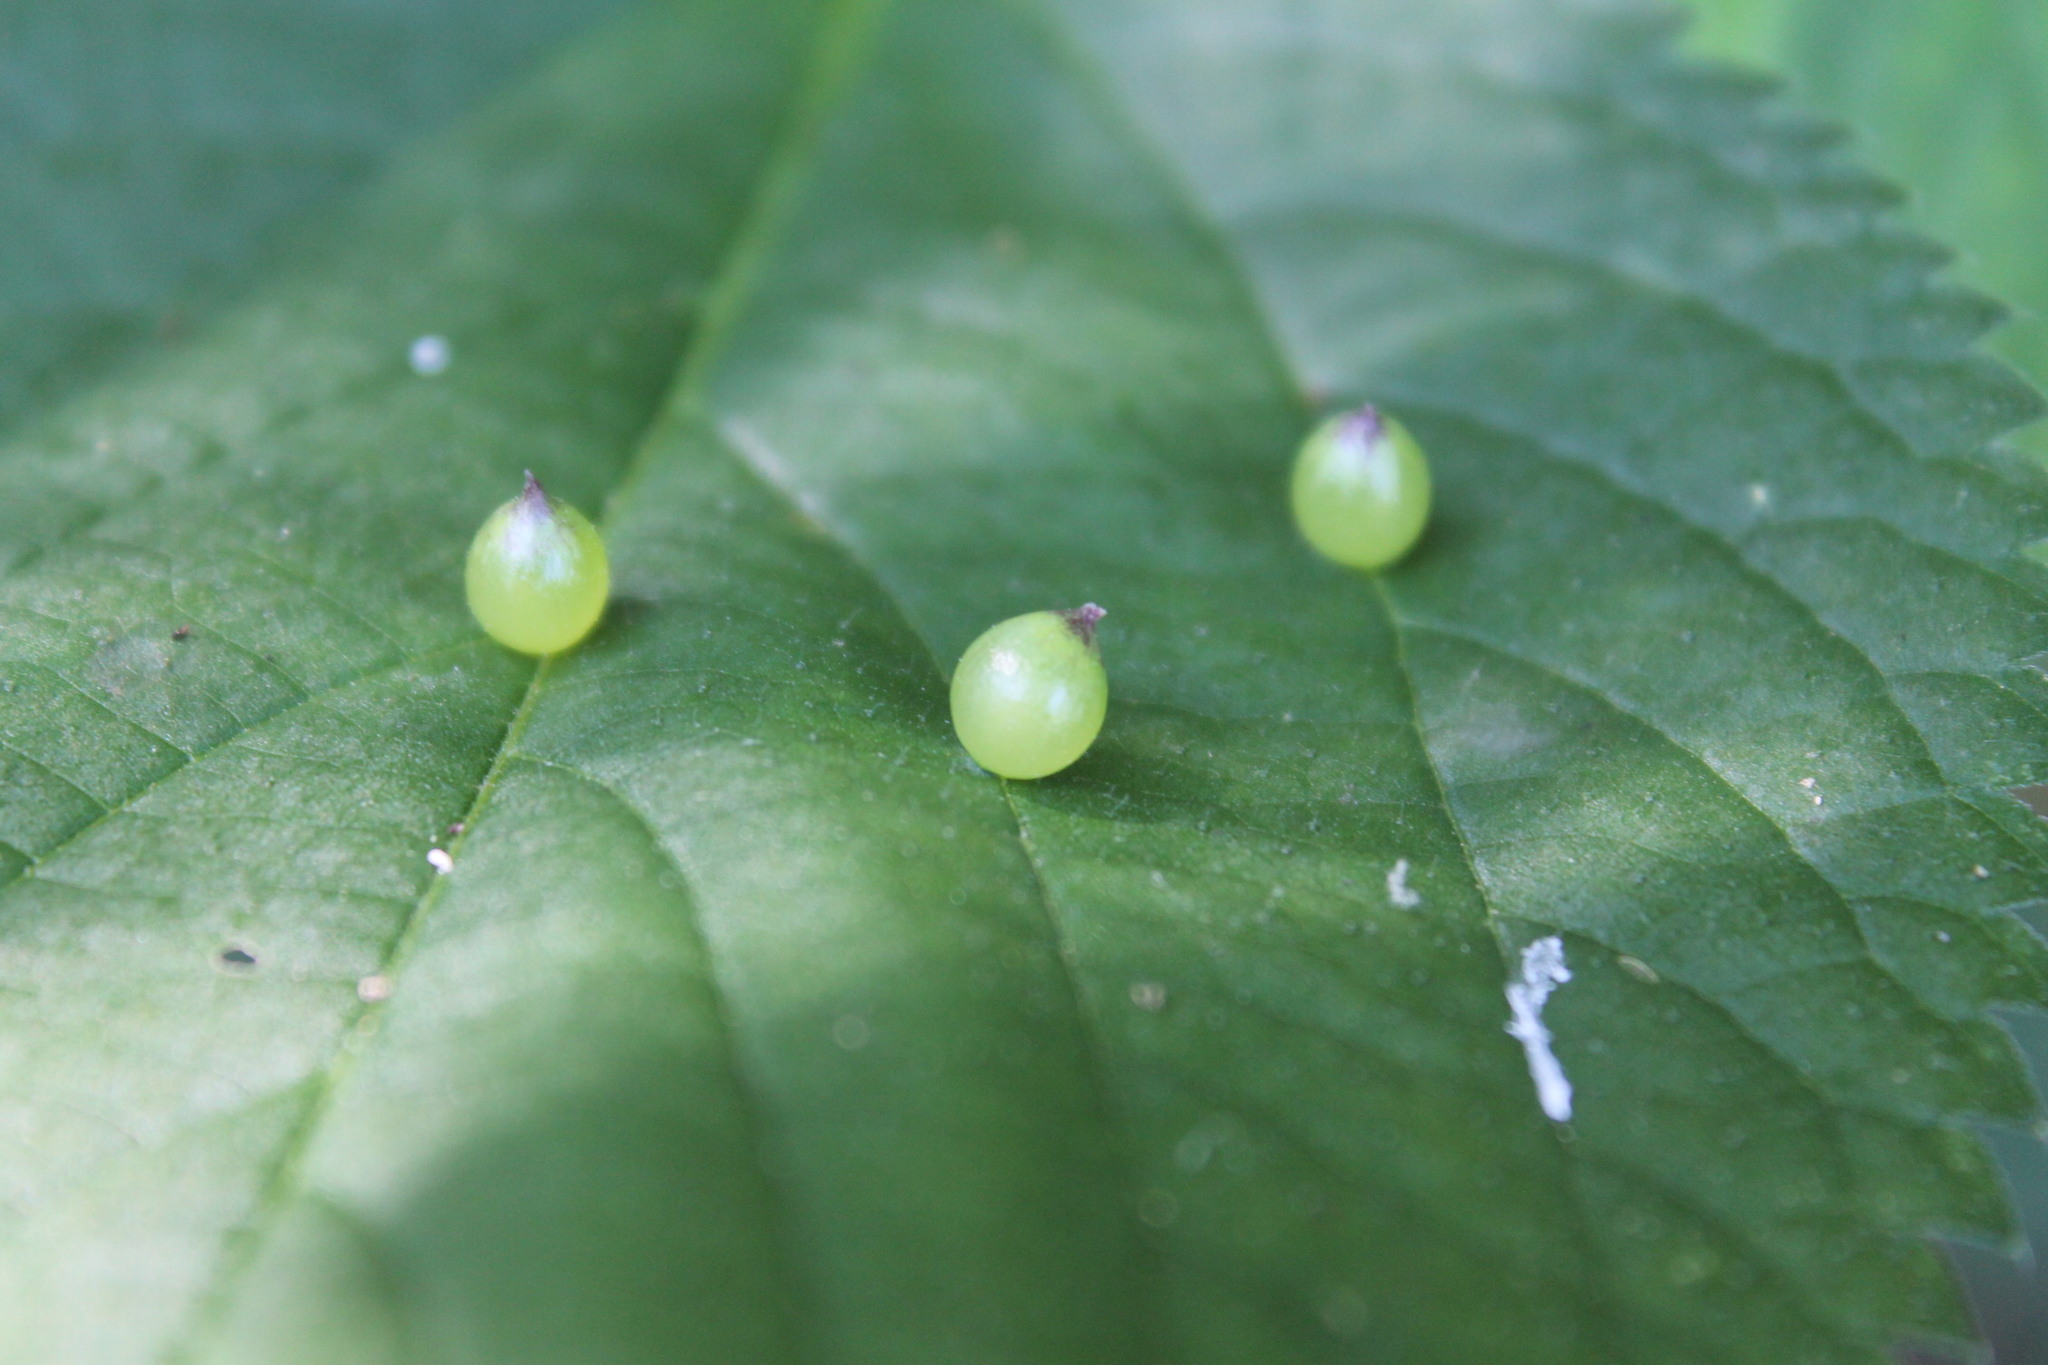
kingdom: Animalia
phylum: Arthropoda
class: Insecta
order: Diptera
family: Cecidomyiidae
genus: Dasineura
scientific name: Dasineura investita
